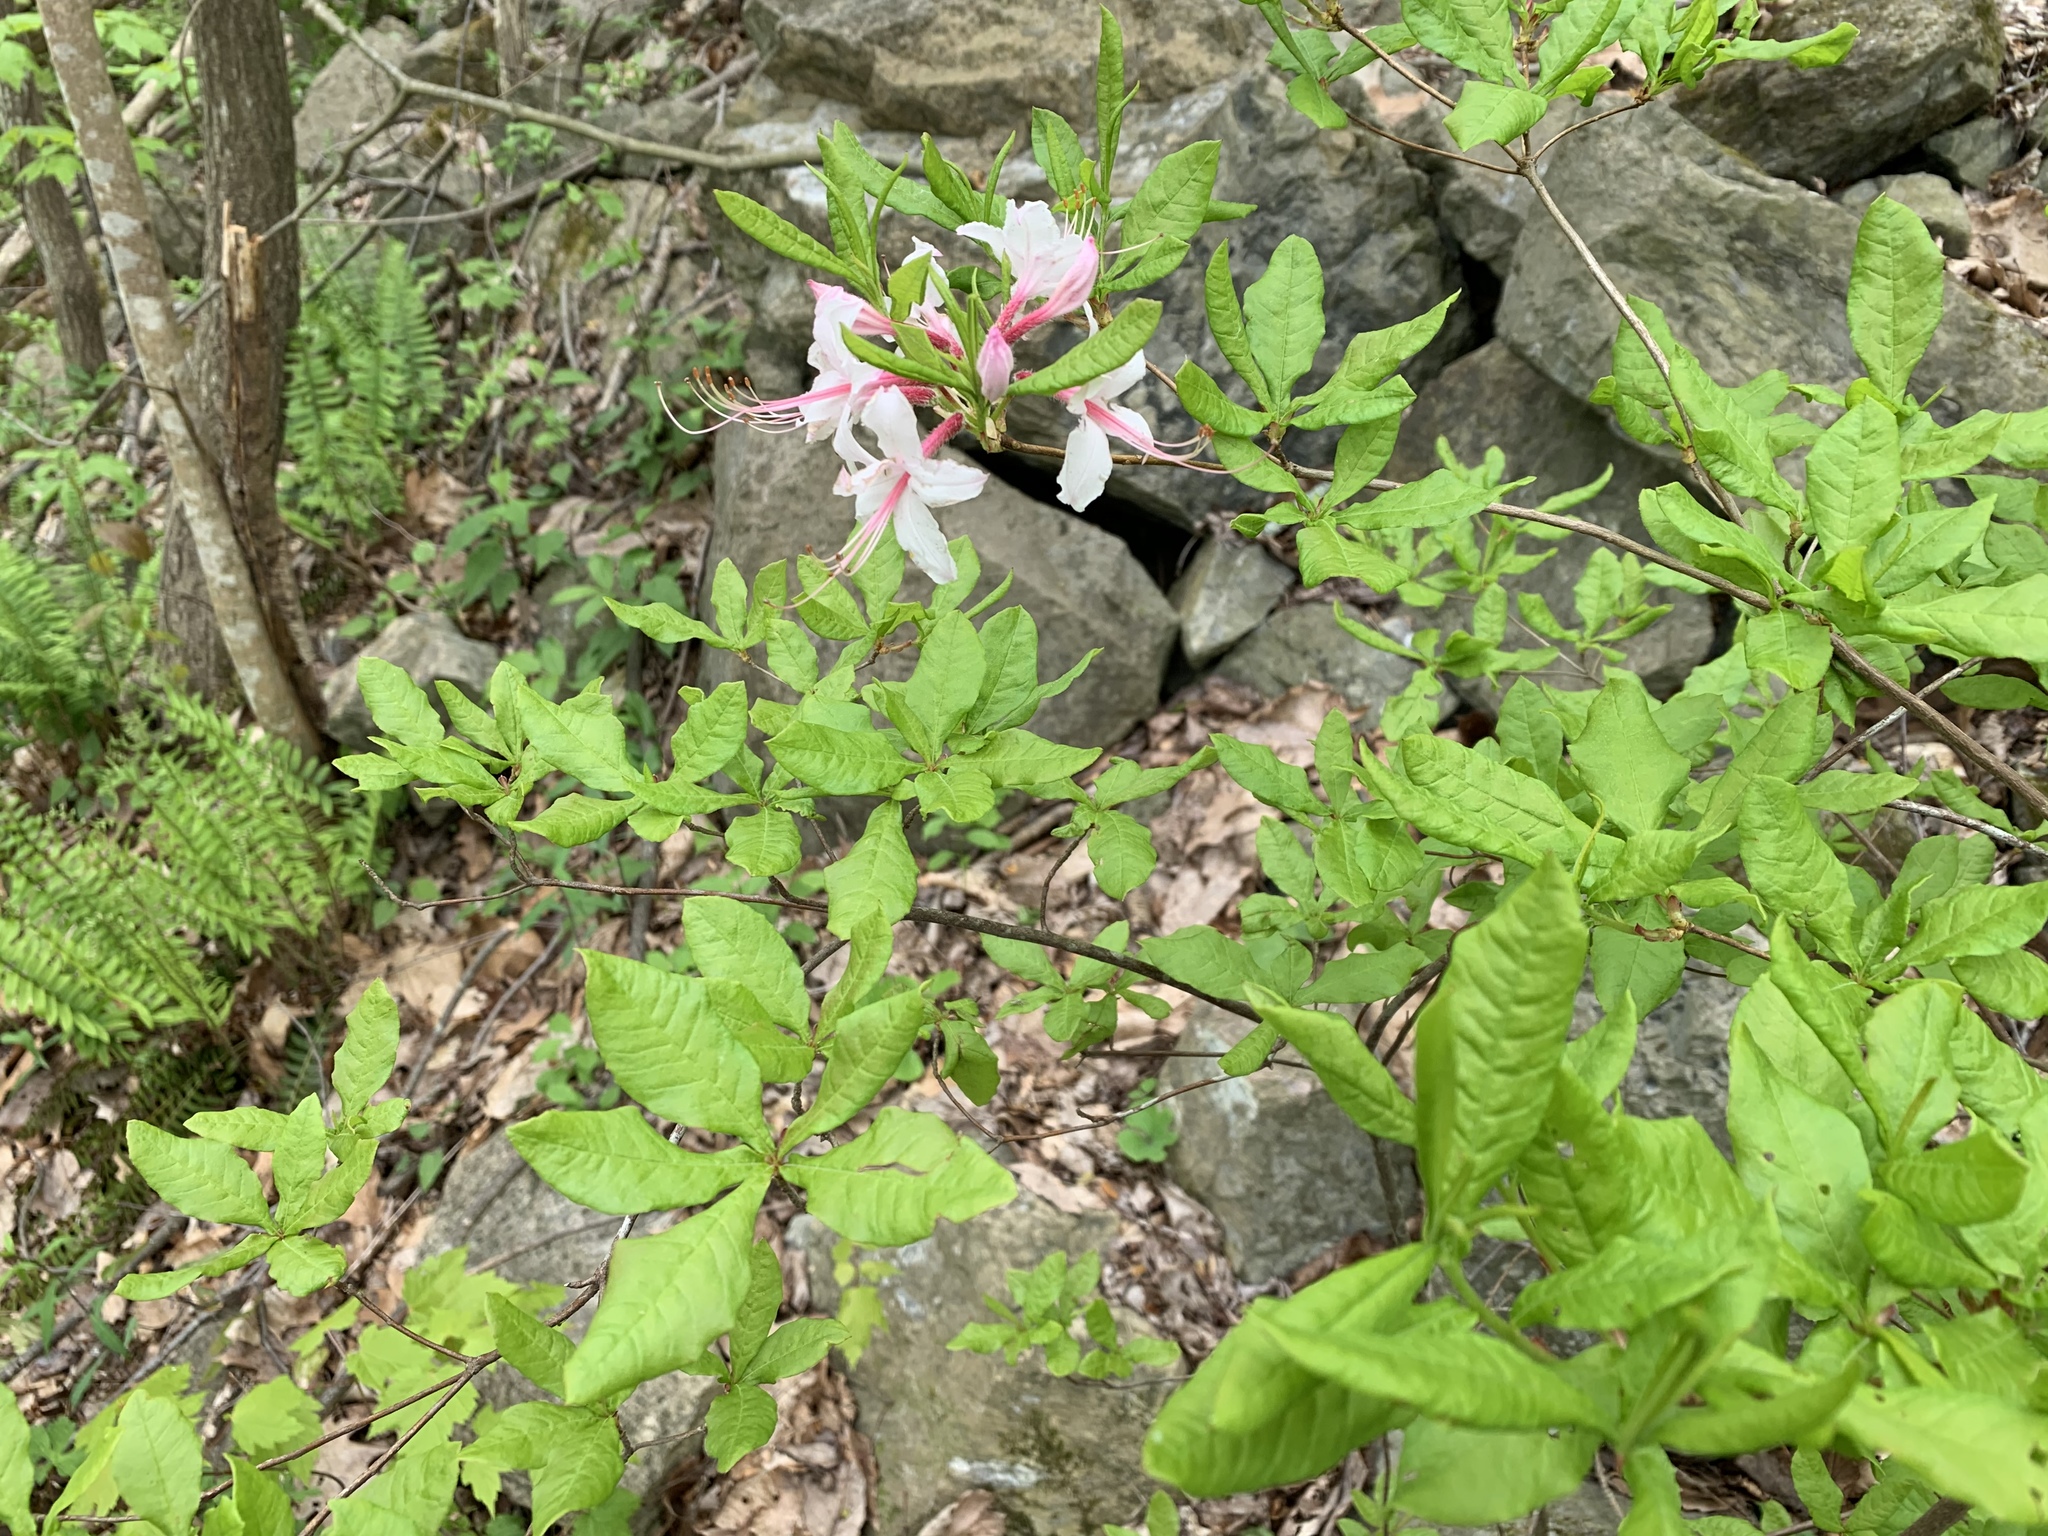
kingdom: Plantae
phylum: Tracheophyta
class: Magnoliopsida
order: Ericales
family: Ericaceae
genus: Rhododendron
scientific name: Rhododendron periclymenoides
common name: Election-pink
